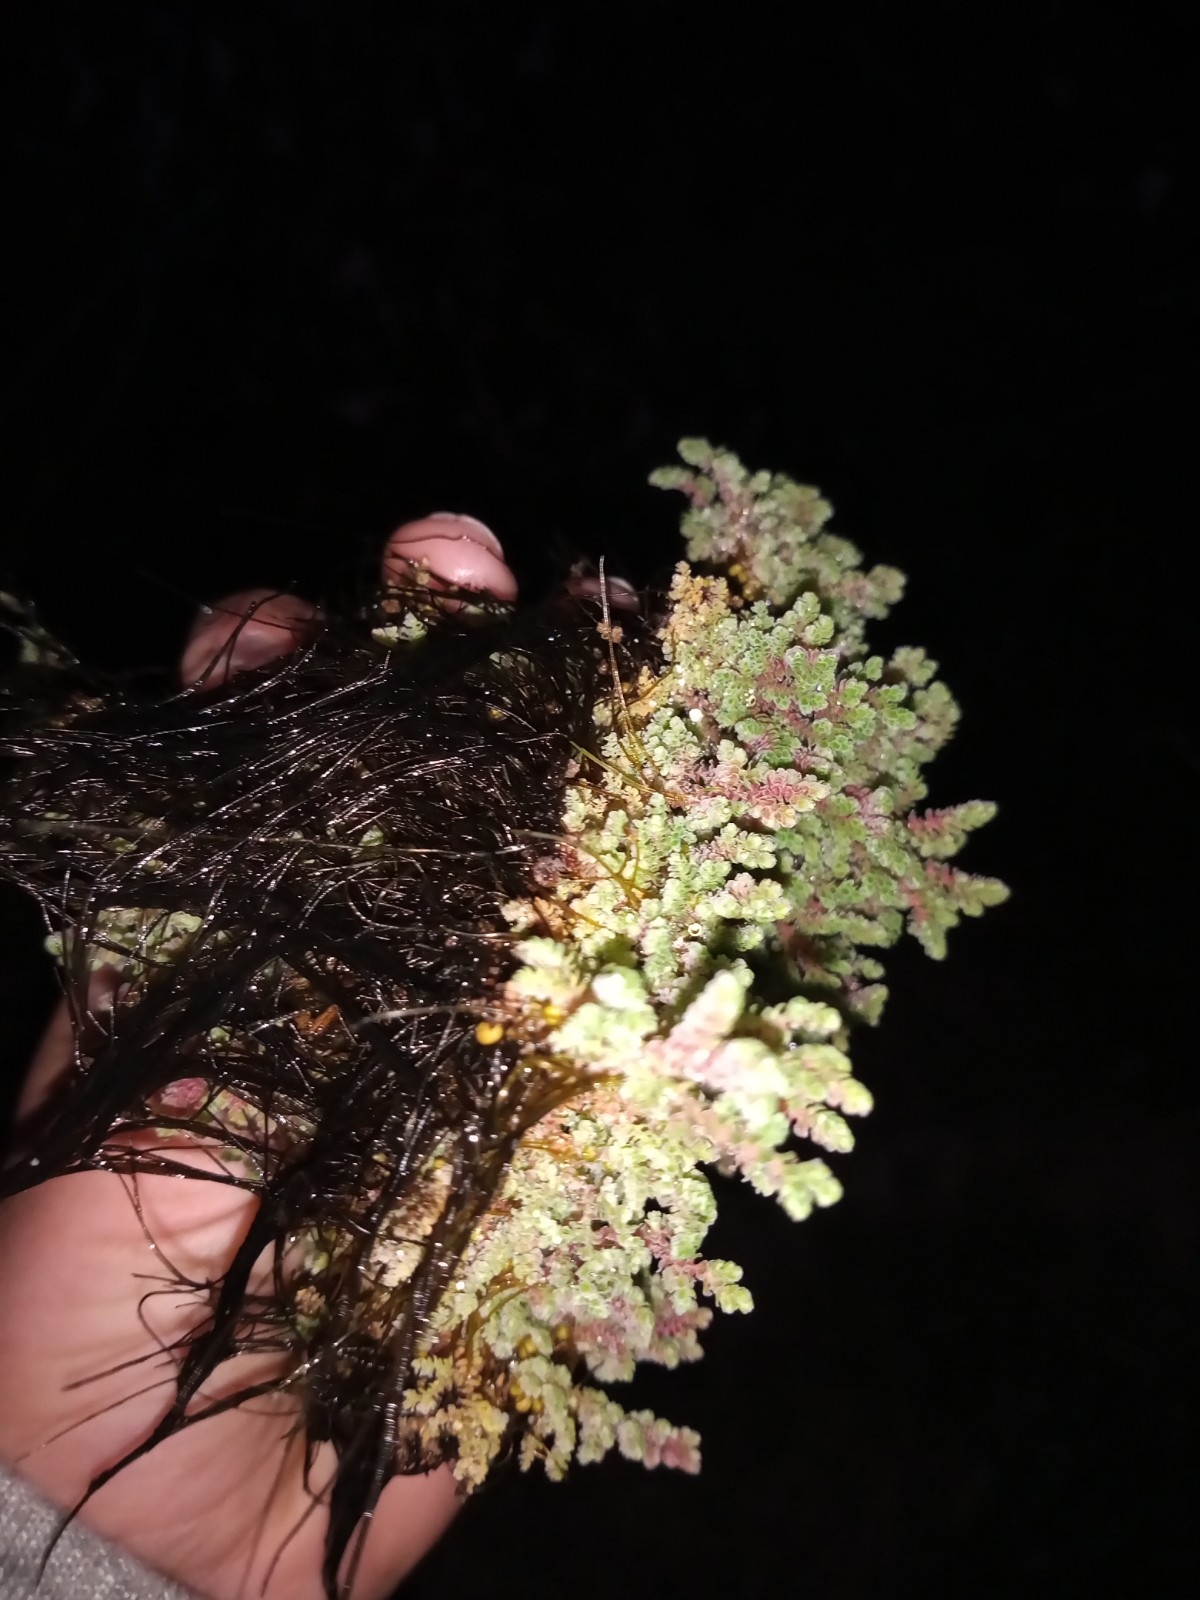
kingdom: Plantae
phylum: Tracheophyta
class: Polypodiopsida
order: Salviniales
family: Salviniaceae
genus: Azolla
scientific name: Azolla filiculoides
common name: Water fern
